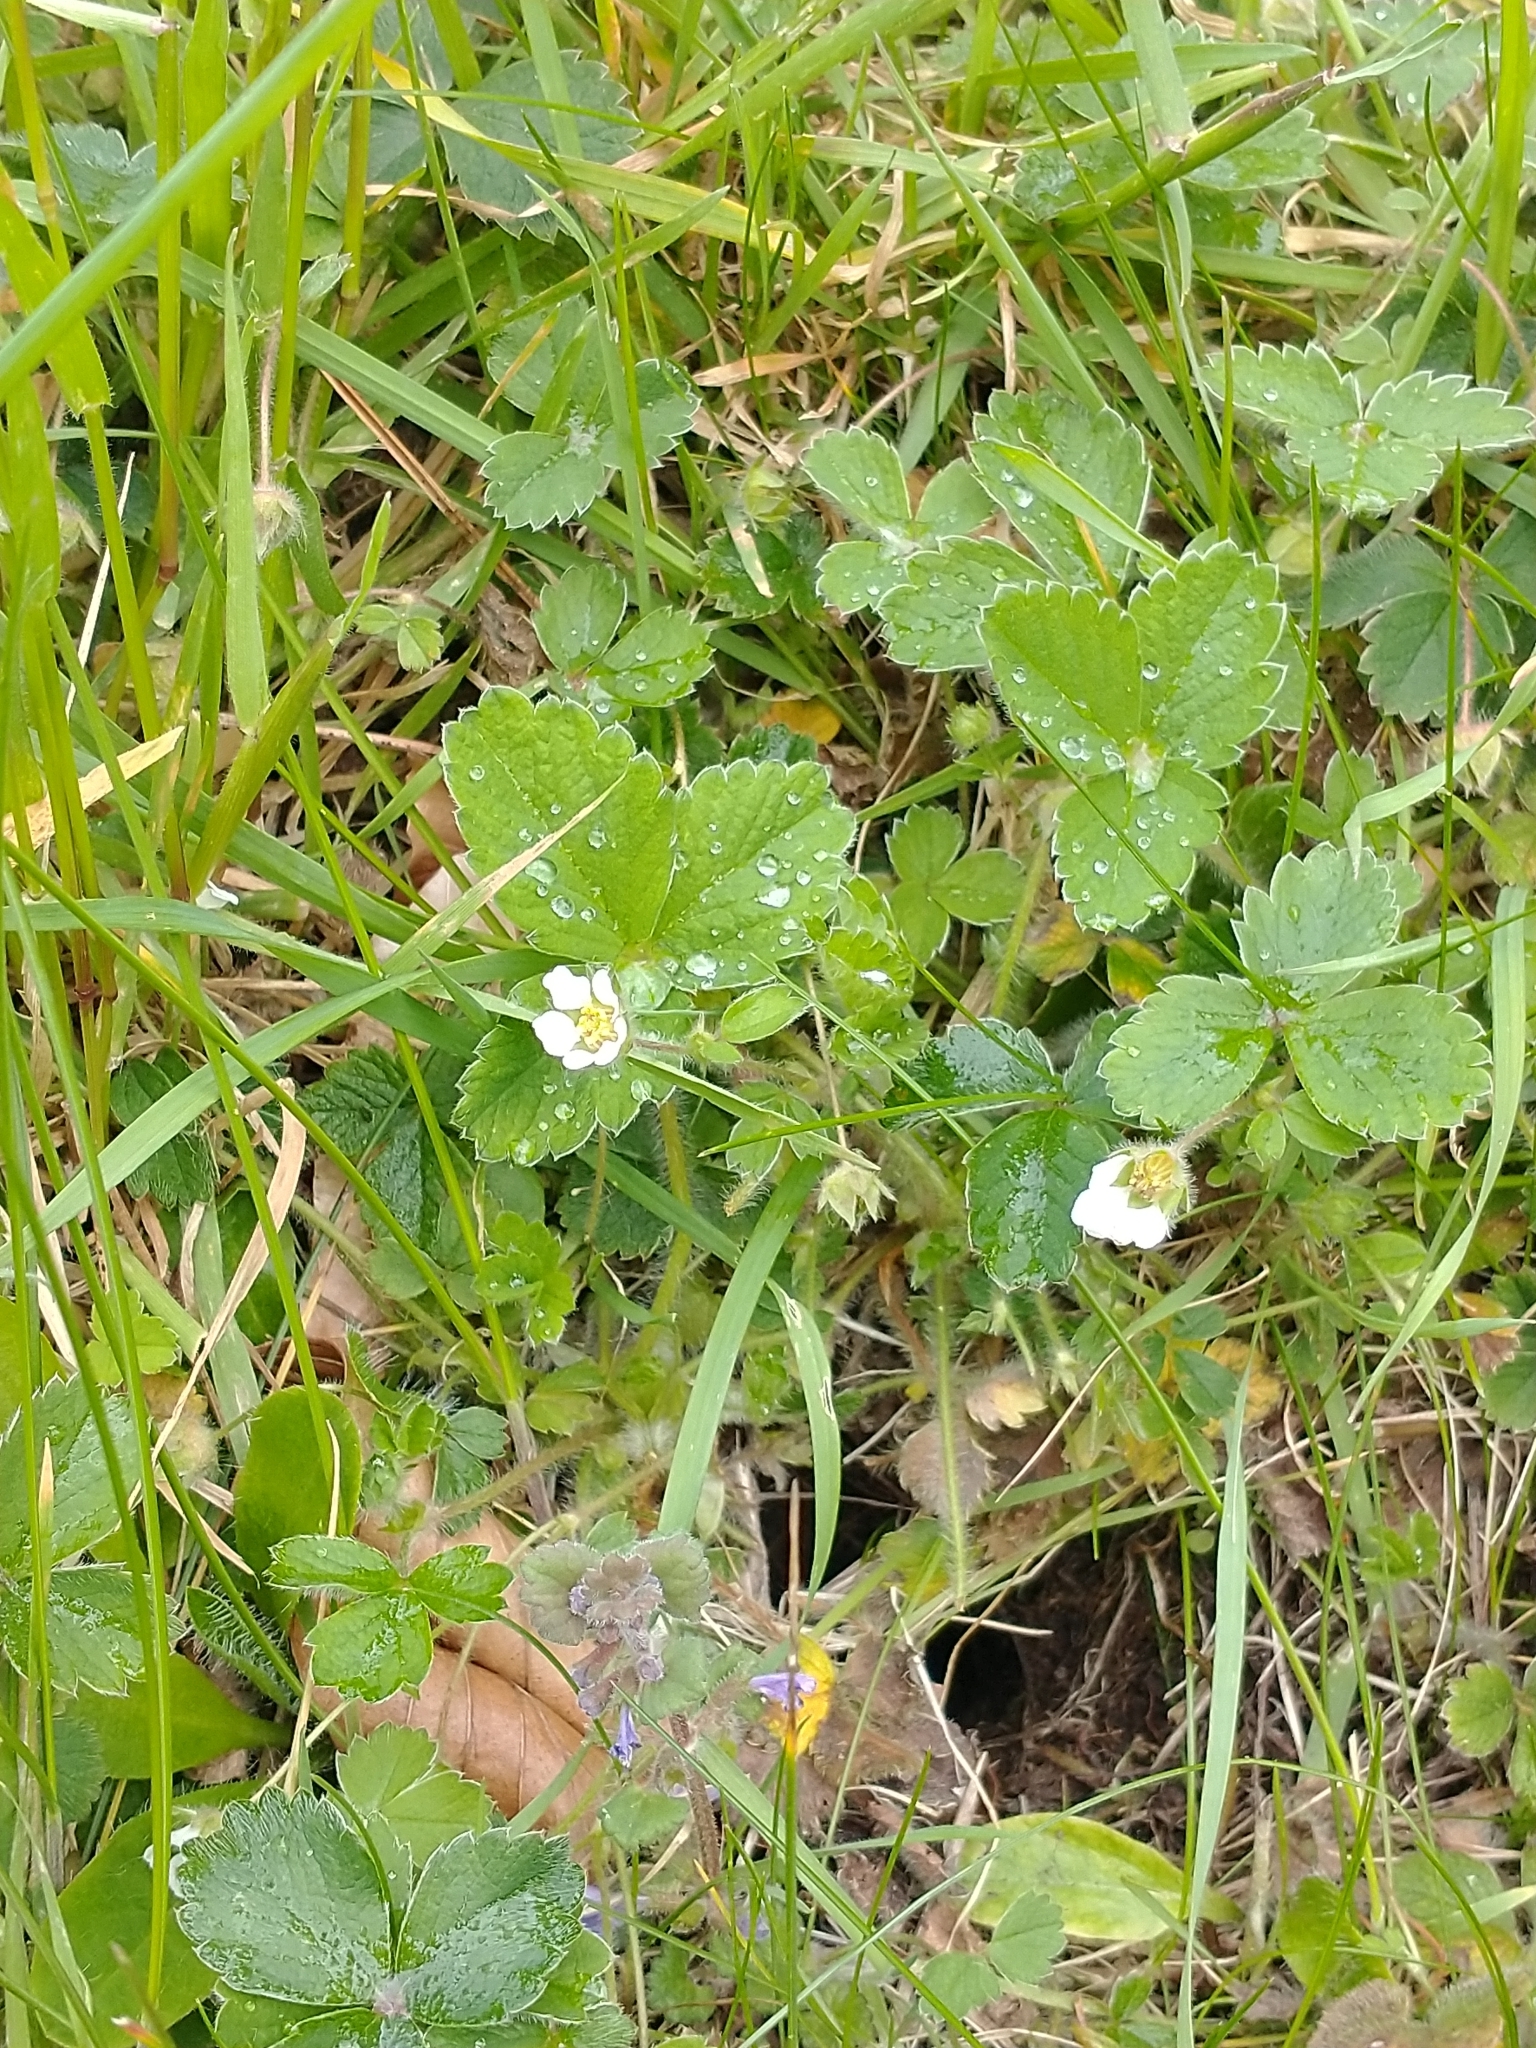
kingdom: Plantae
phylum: Tracheophyta
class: Magnoliopsida
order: Rosales
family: Rosaceae
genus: Potentilla
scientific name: Potentilla sterilis
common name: Barren strawberry
